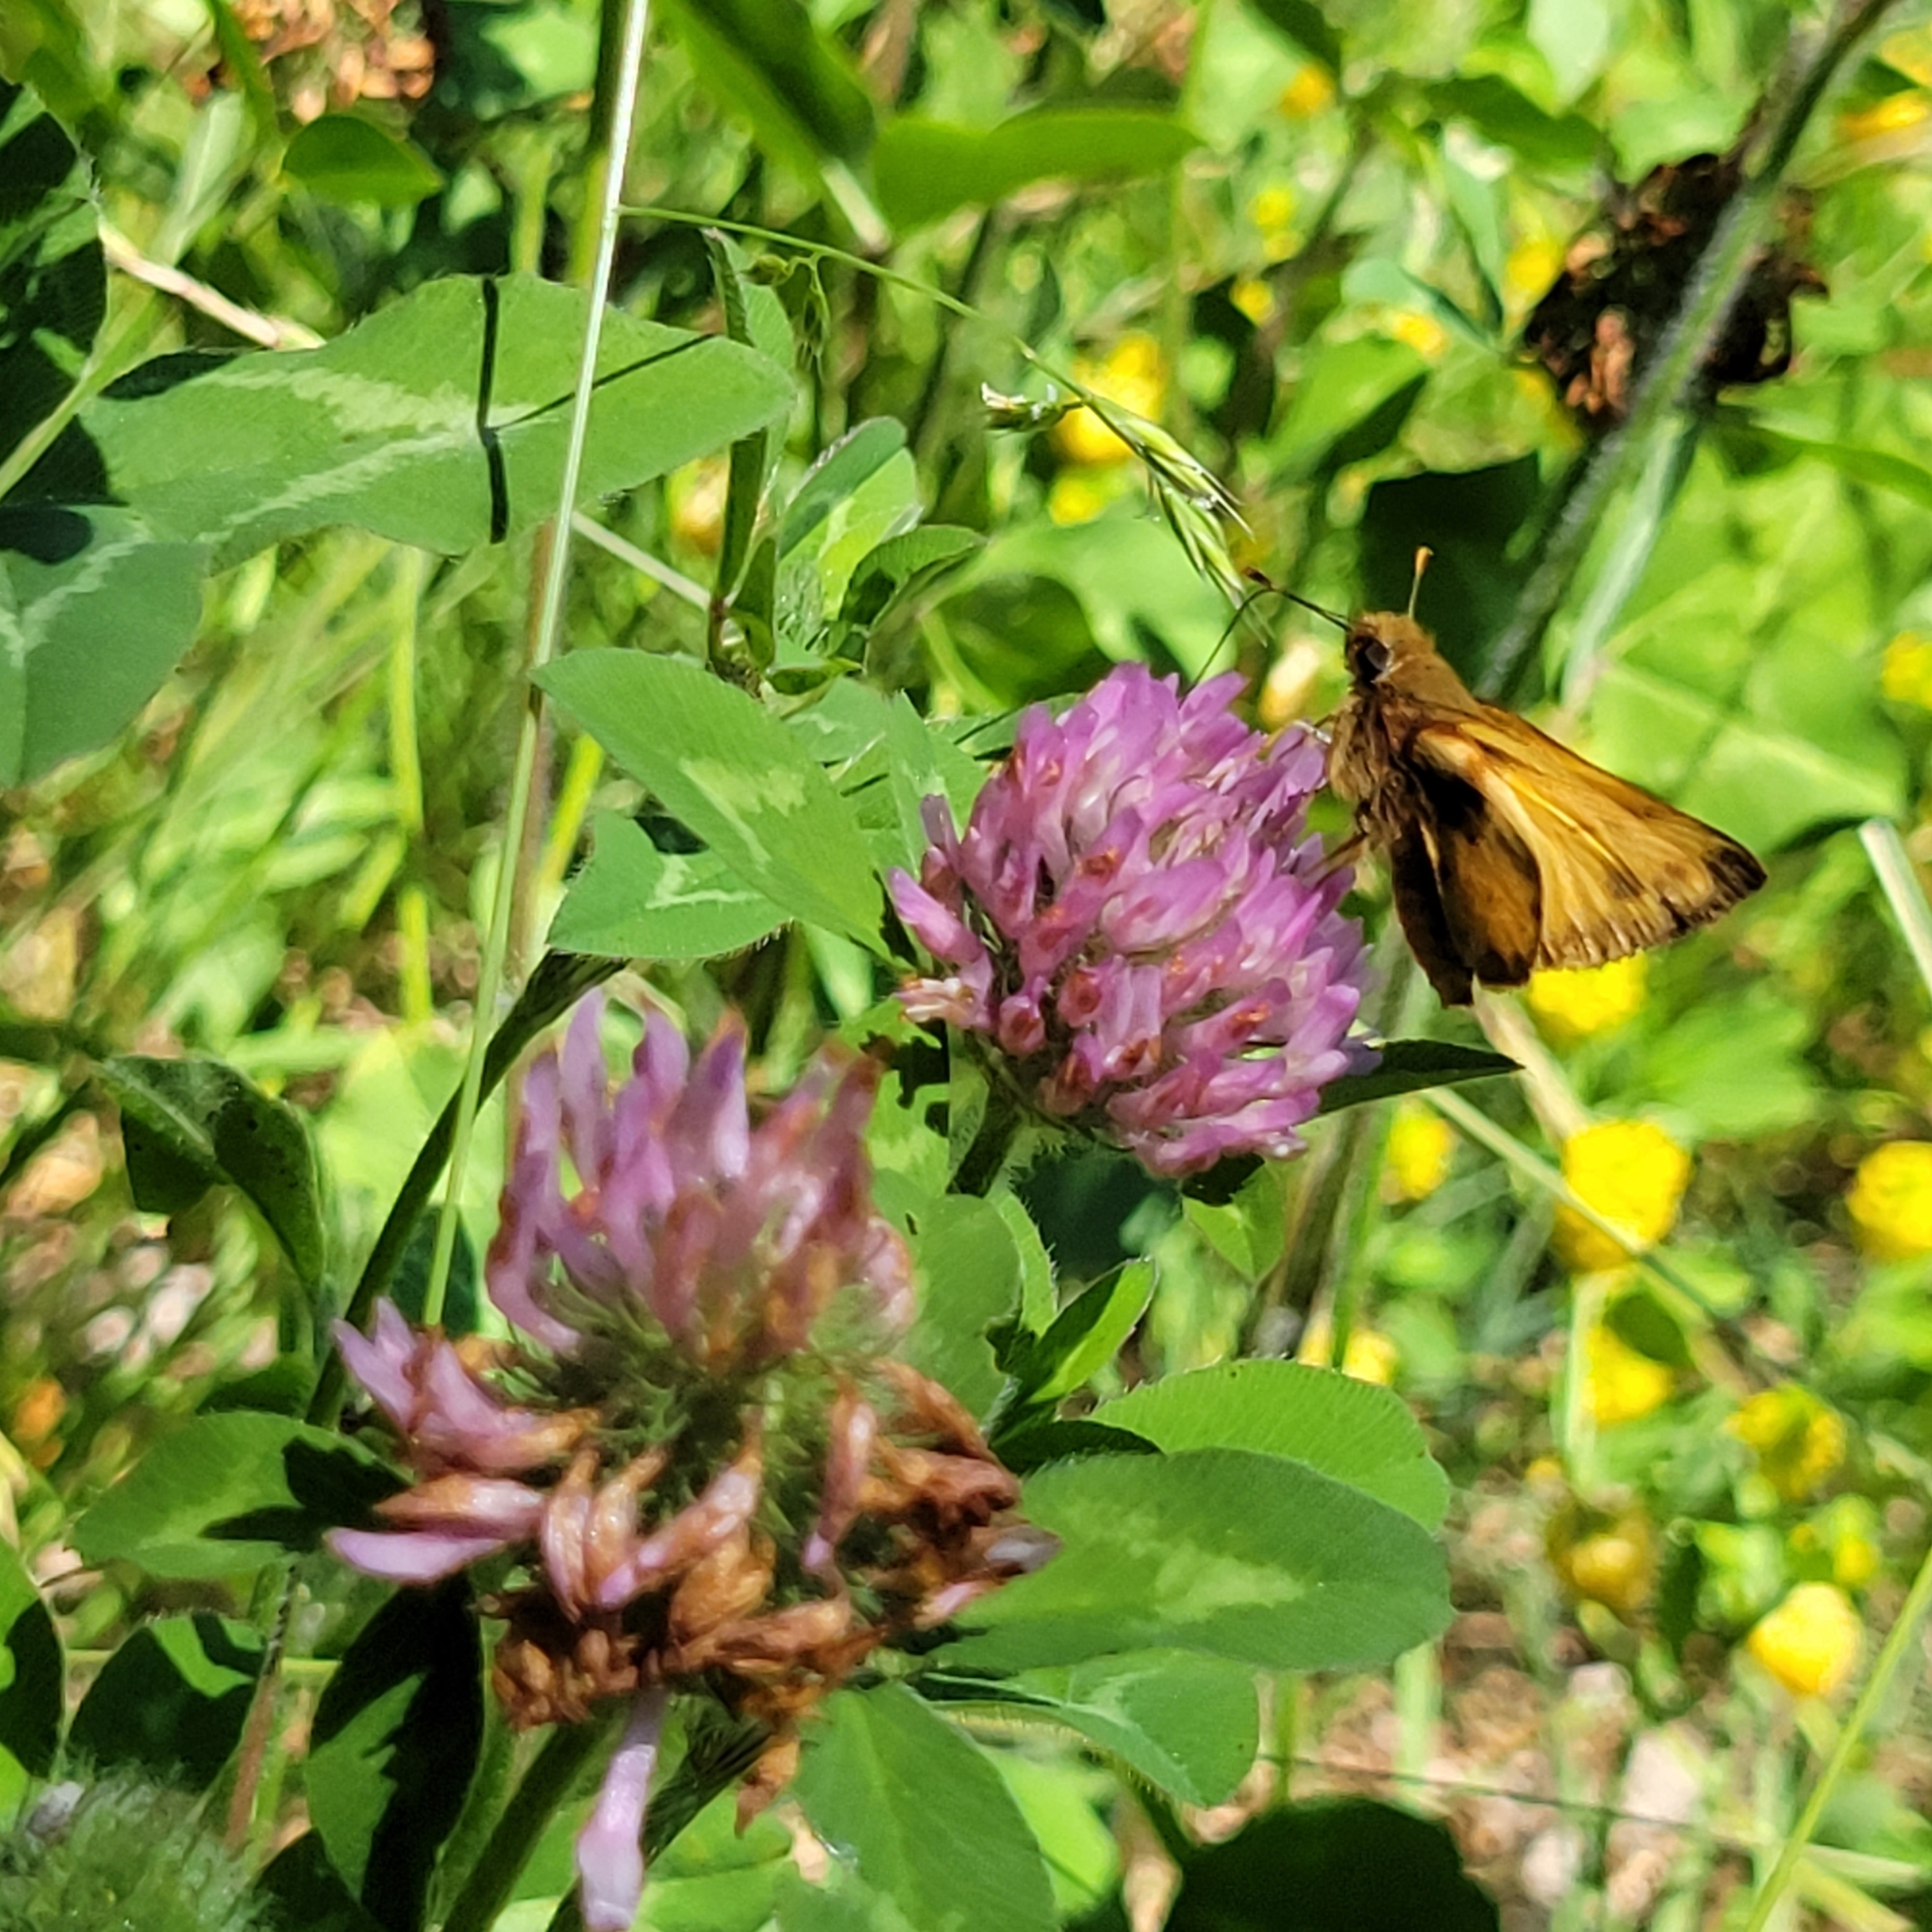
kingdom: Animalia
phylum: Arthropoda
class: Insecta
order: Lepidoptera
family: Hesperiidae
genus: Lon
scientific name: Lon zabulon
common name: Zabulon skipper
